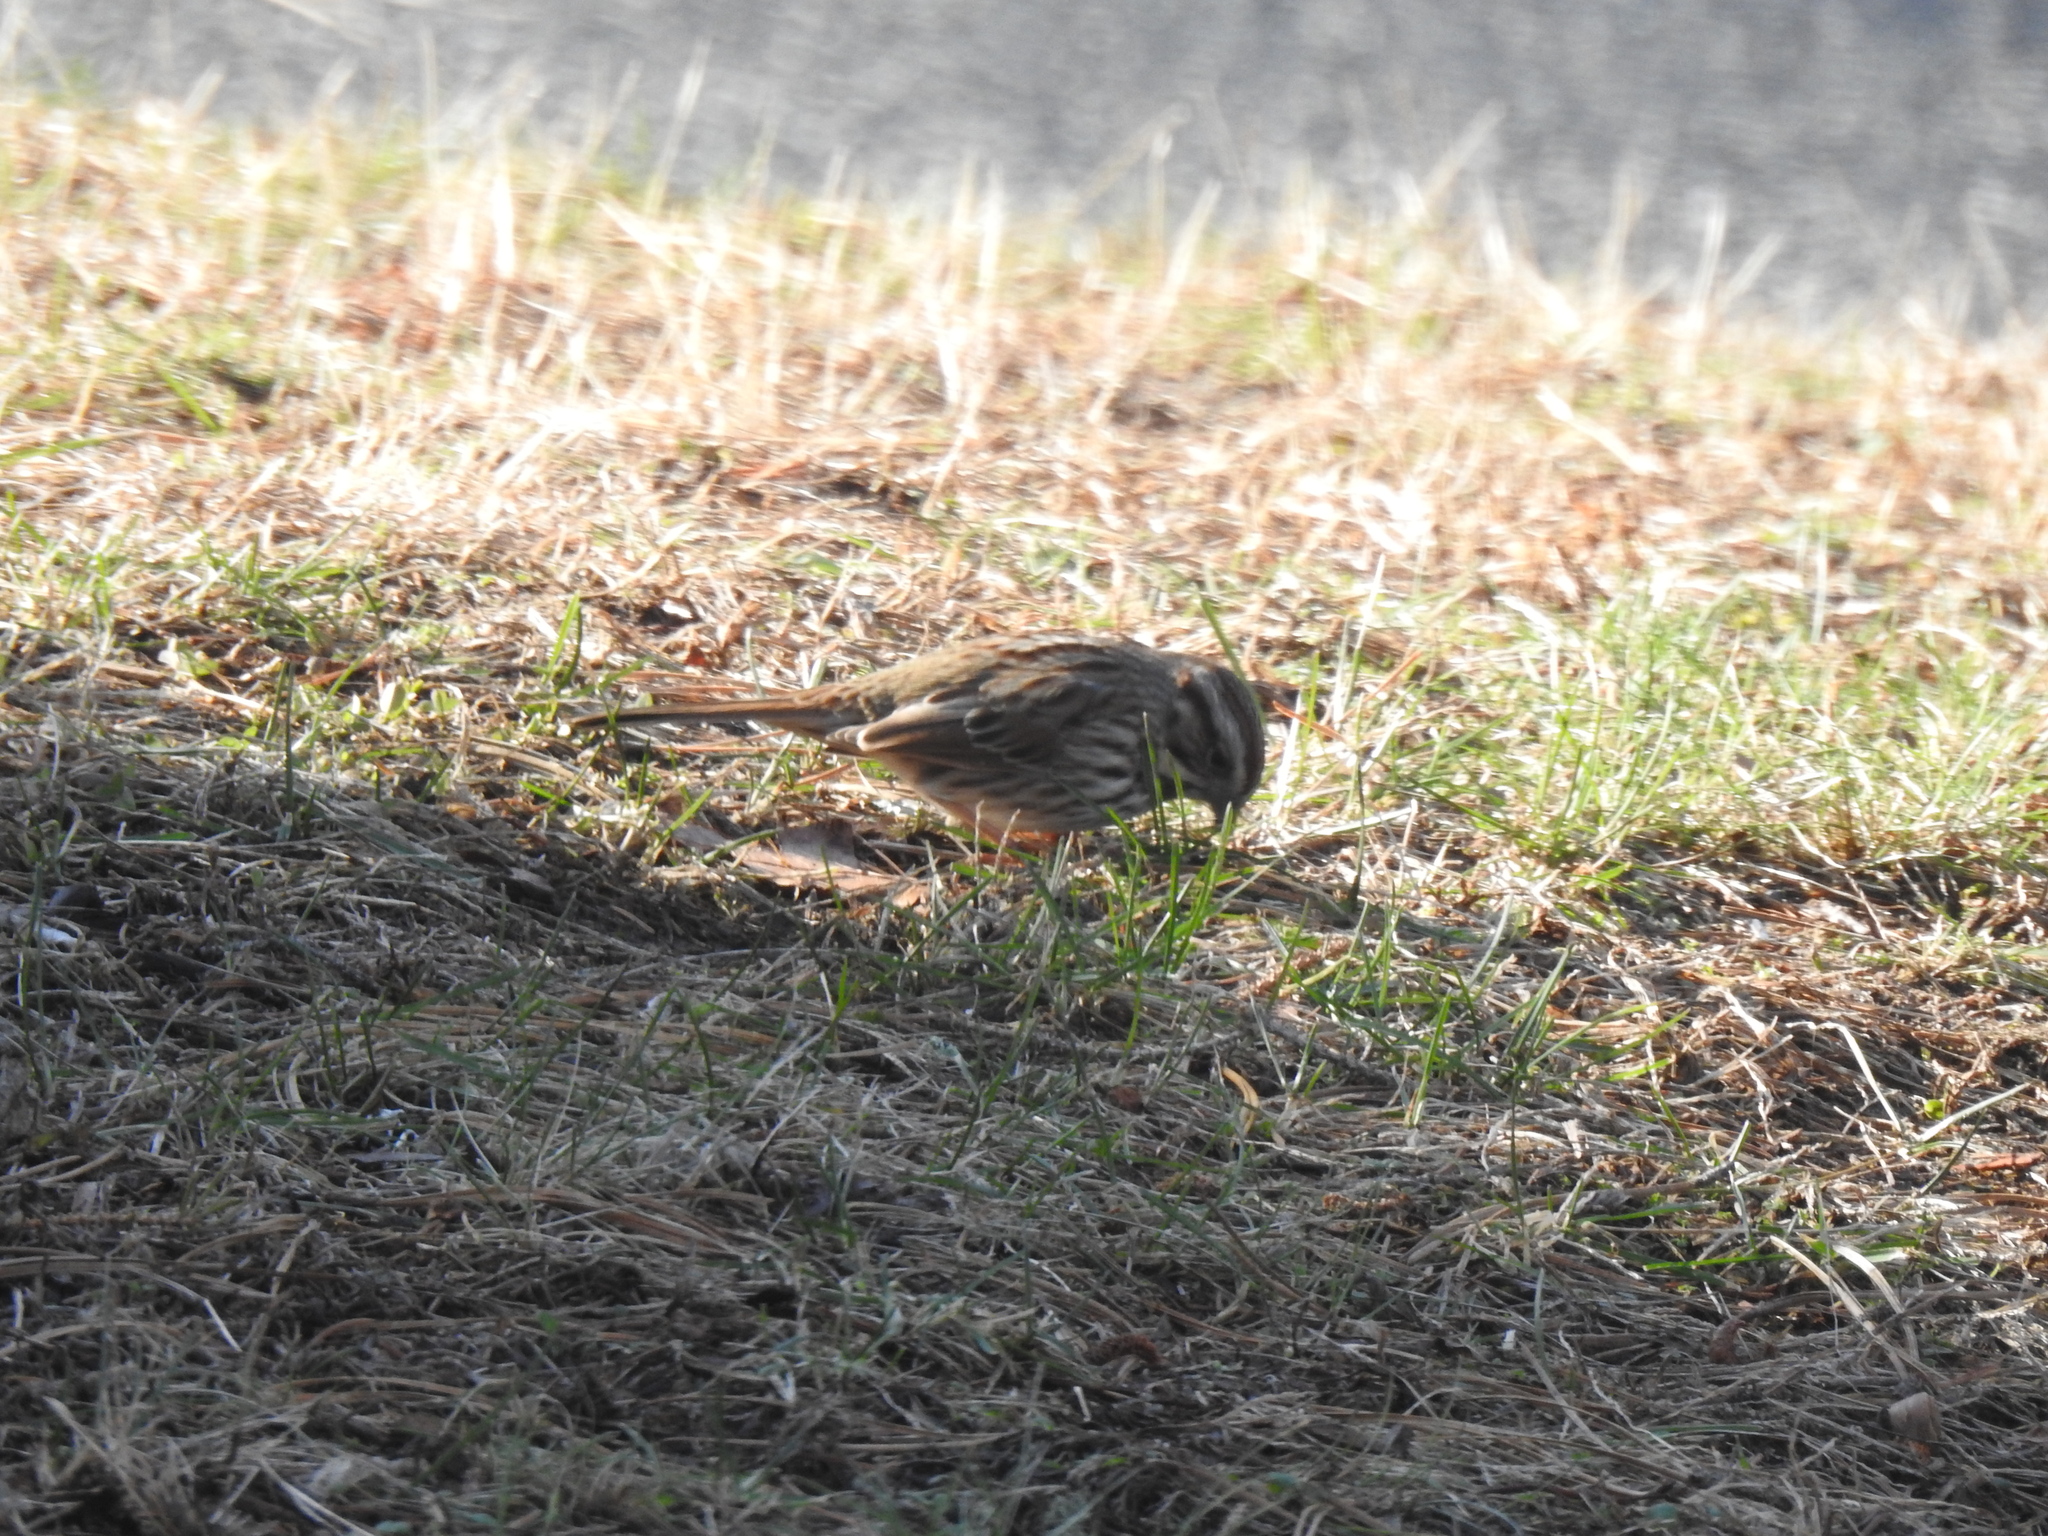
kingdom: Animalia
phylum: Chordata
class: Aves
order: Passeriformes
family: Passerellidae
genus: Melospiza
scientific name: Melospiza melodia
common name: Song sparrow
